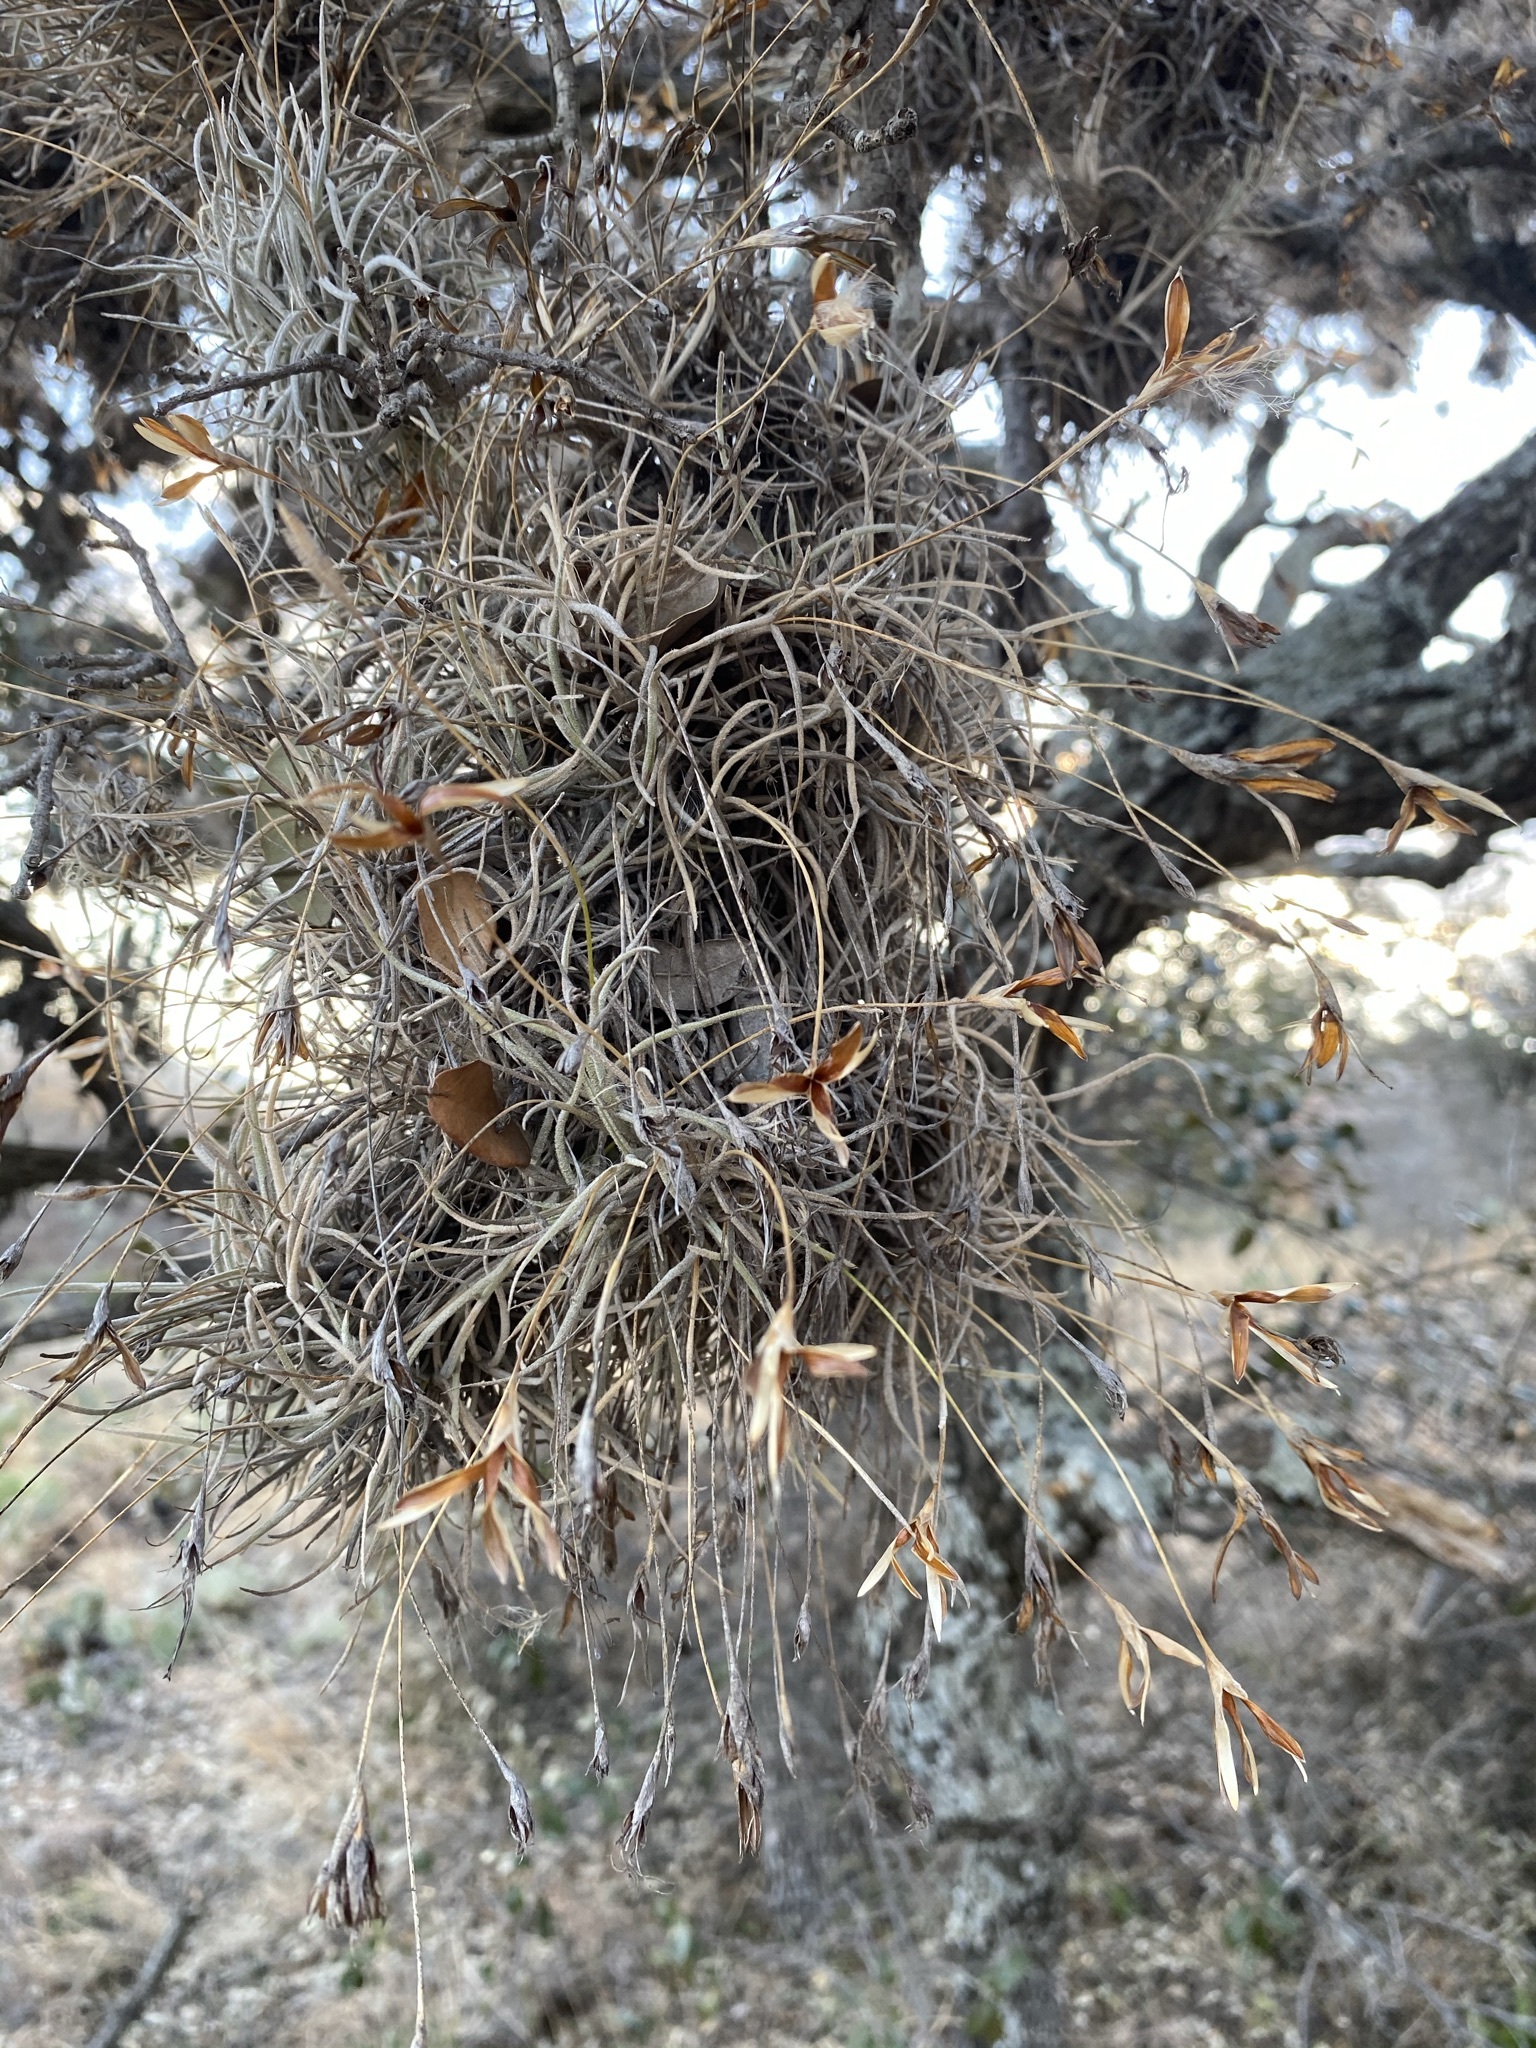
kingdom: Plantae
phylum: Tracheophyta
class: Liliopsida
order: Poales
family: Bromeliaceae
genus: Tillandsia
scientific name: Tillandsia recurvata
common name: Small ballmoss
